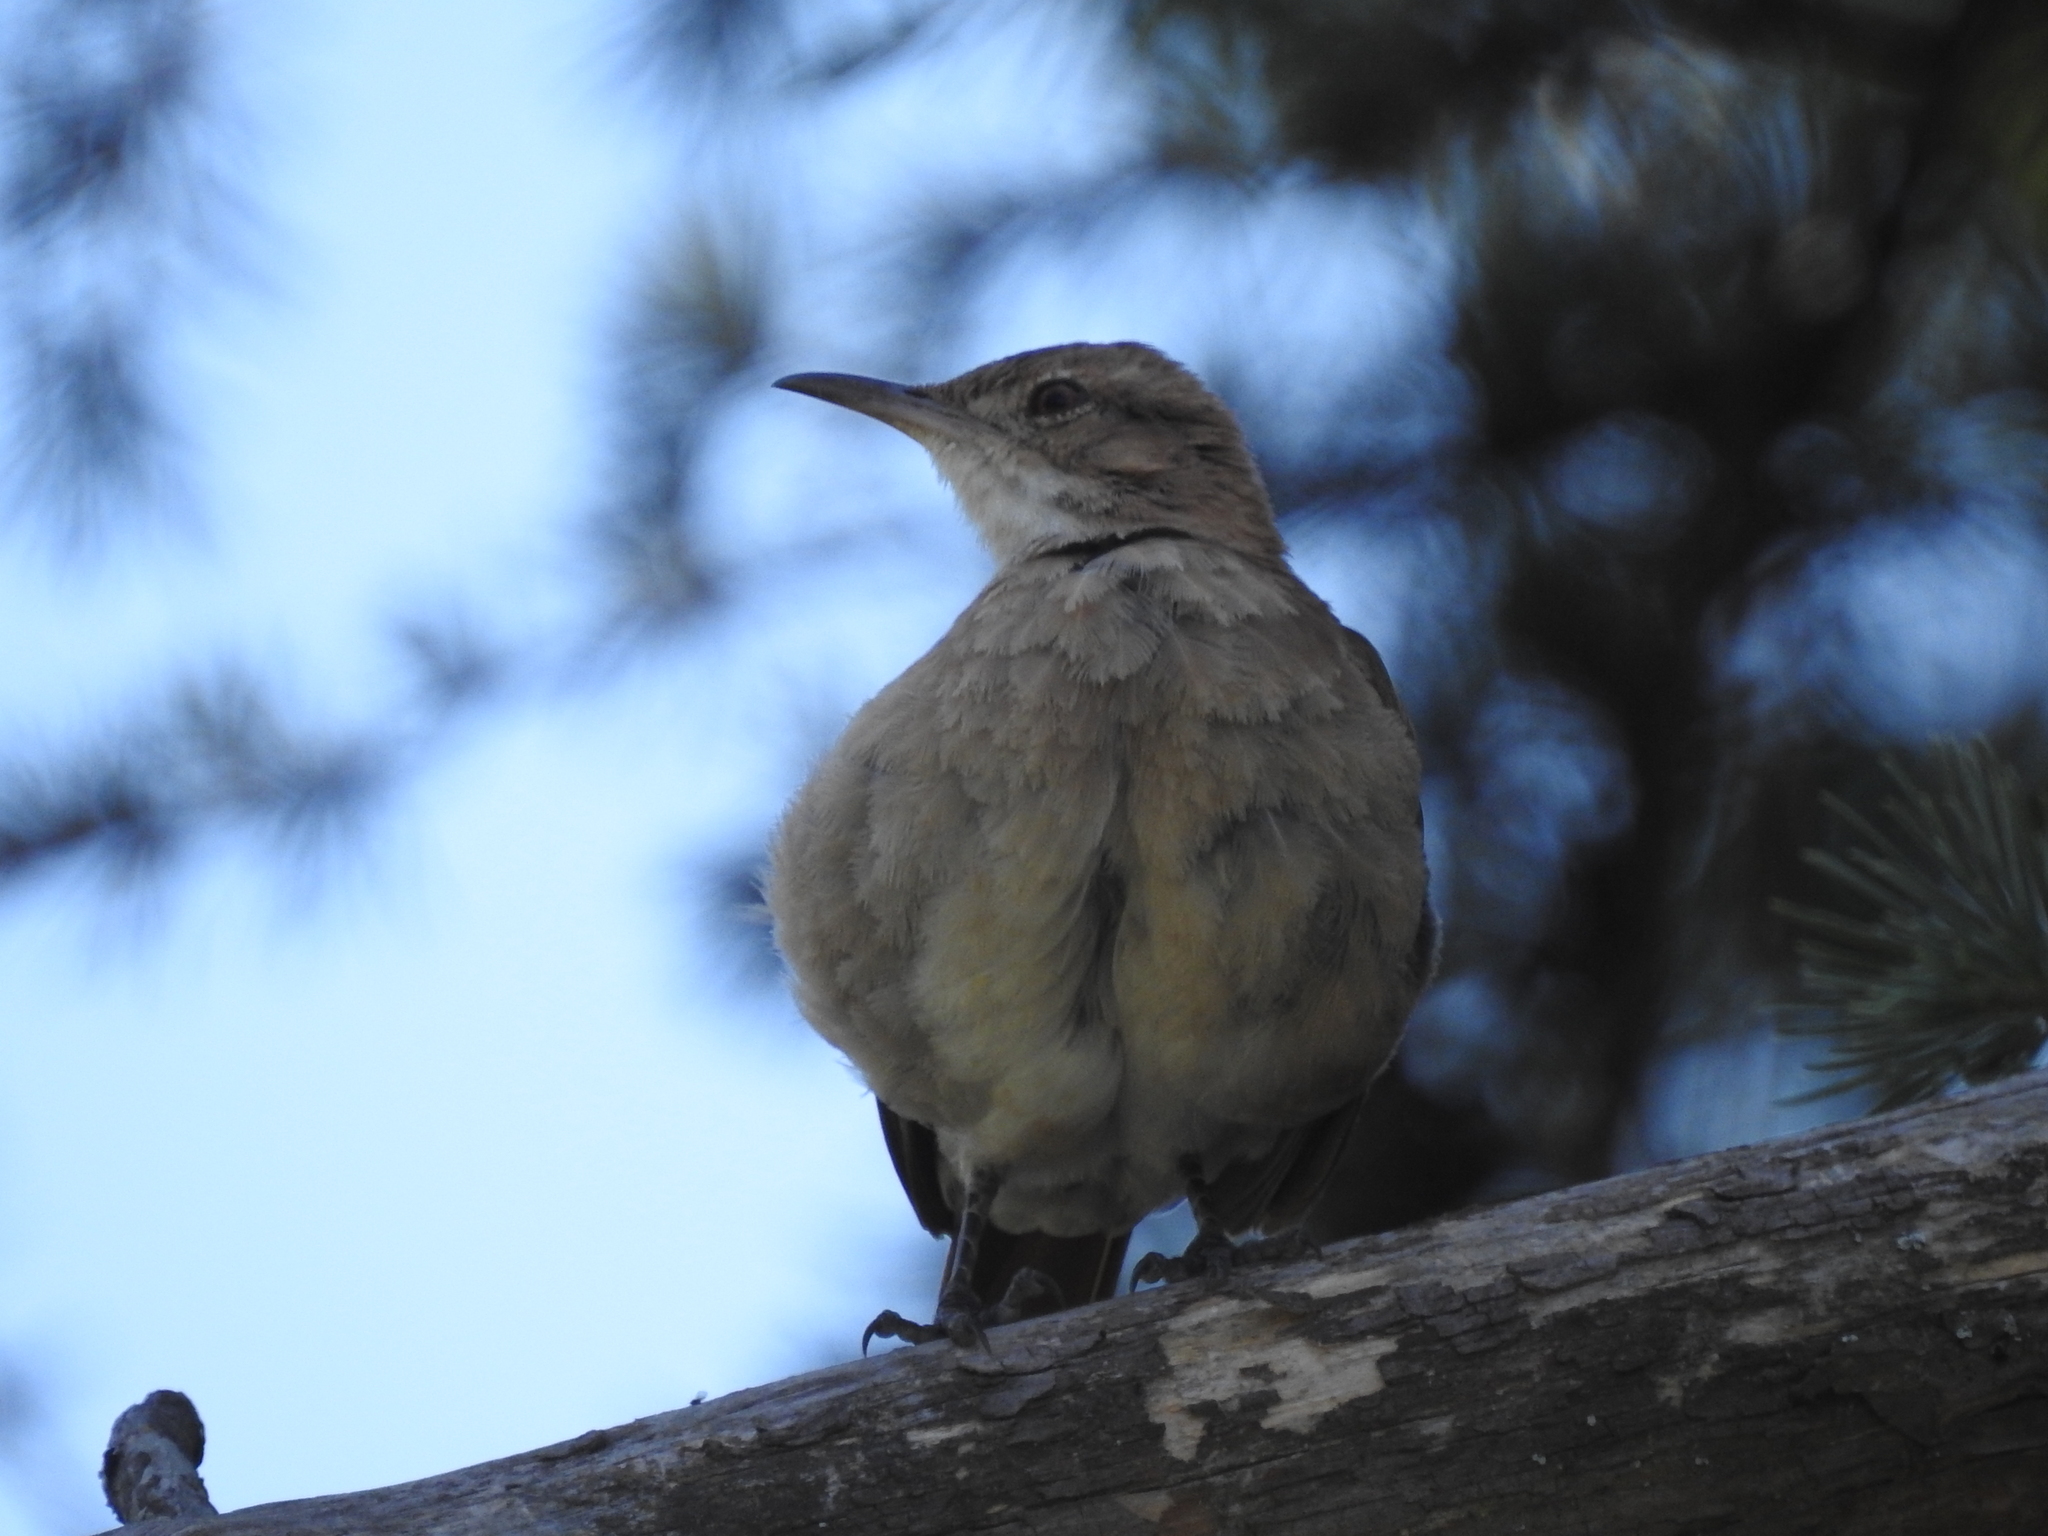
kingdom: Animalia
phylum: Chordata
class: Aves
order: Passeriformes
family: Furnariidae
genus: Furnarius
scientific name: Furnarius rufus
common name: Rufous hornero
